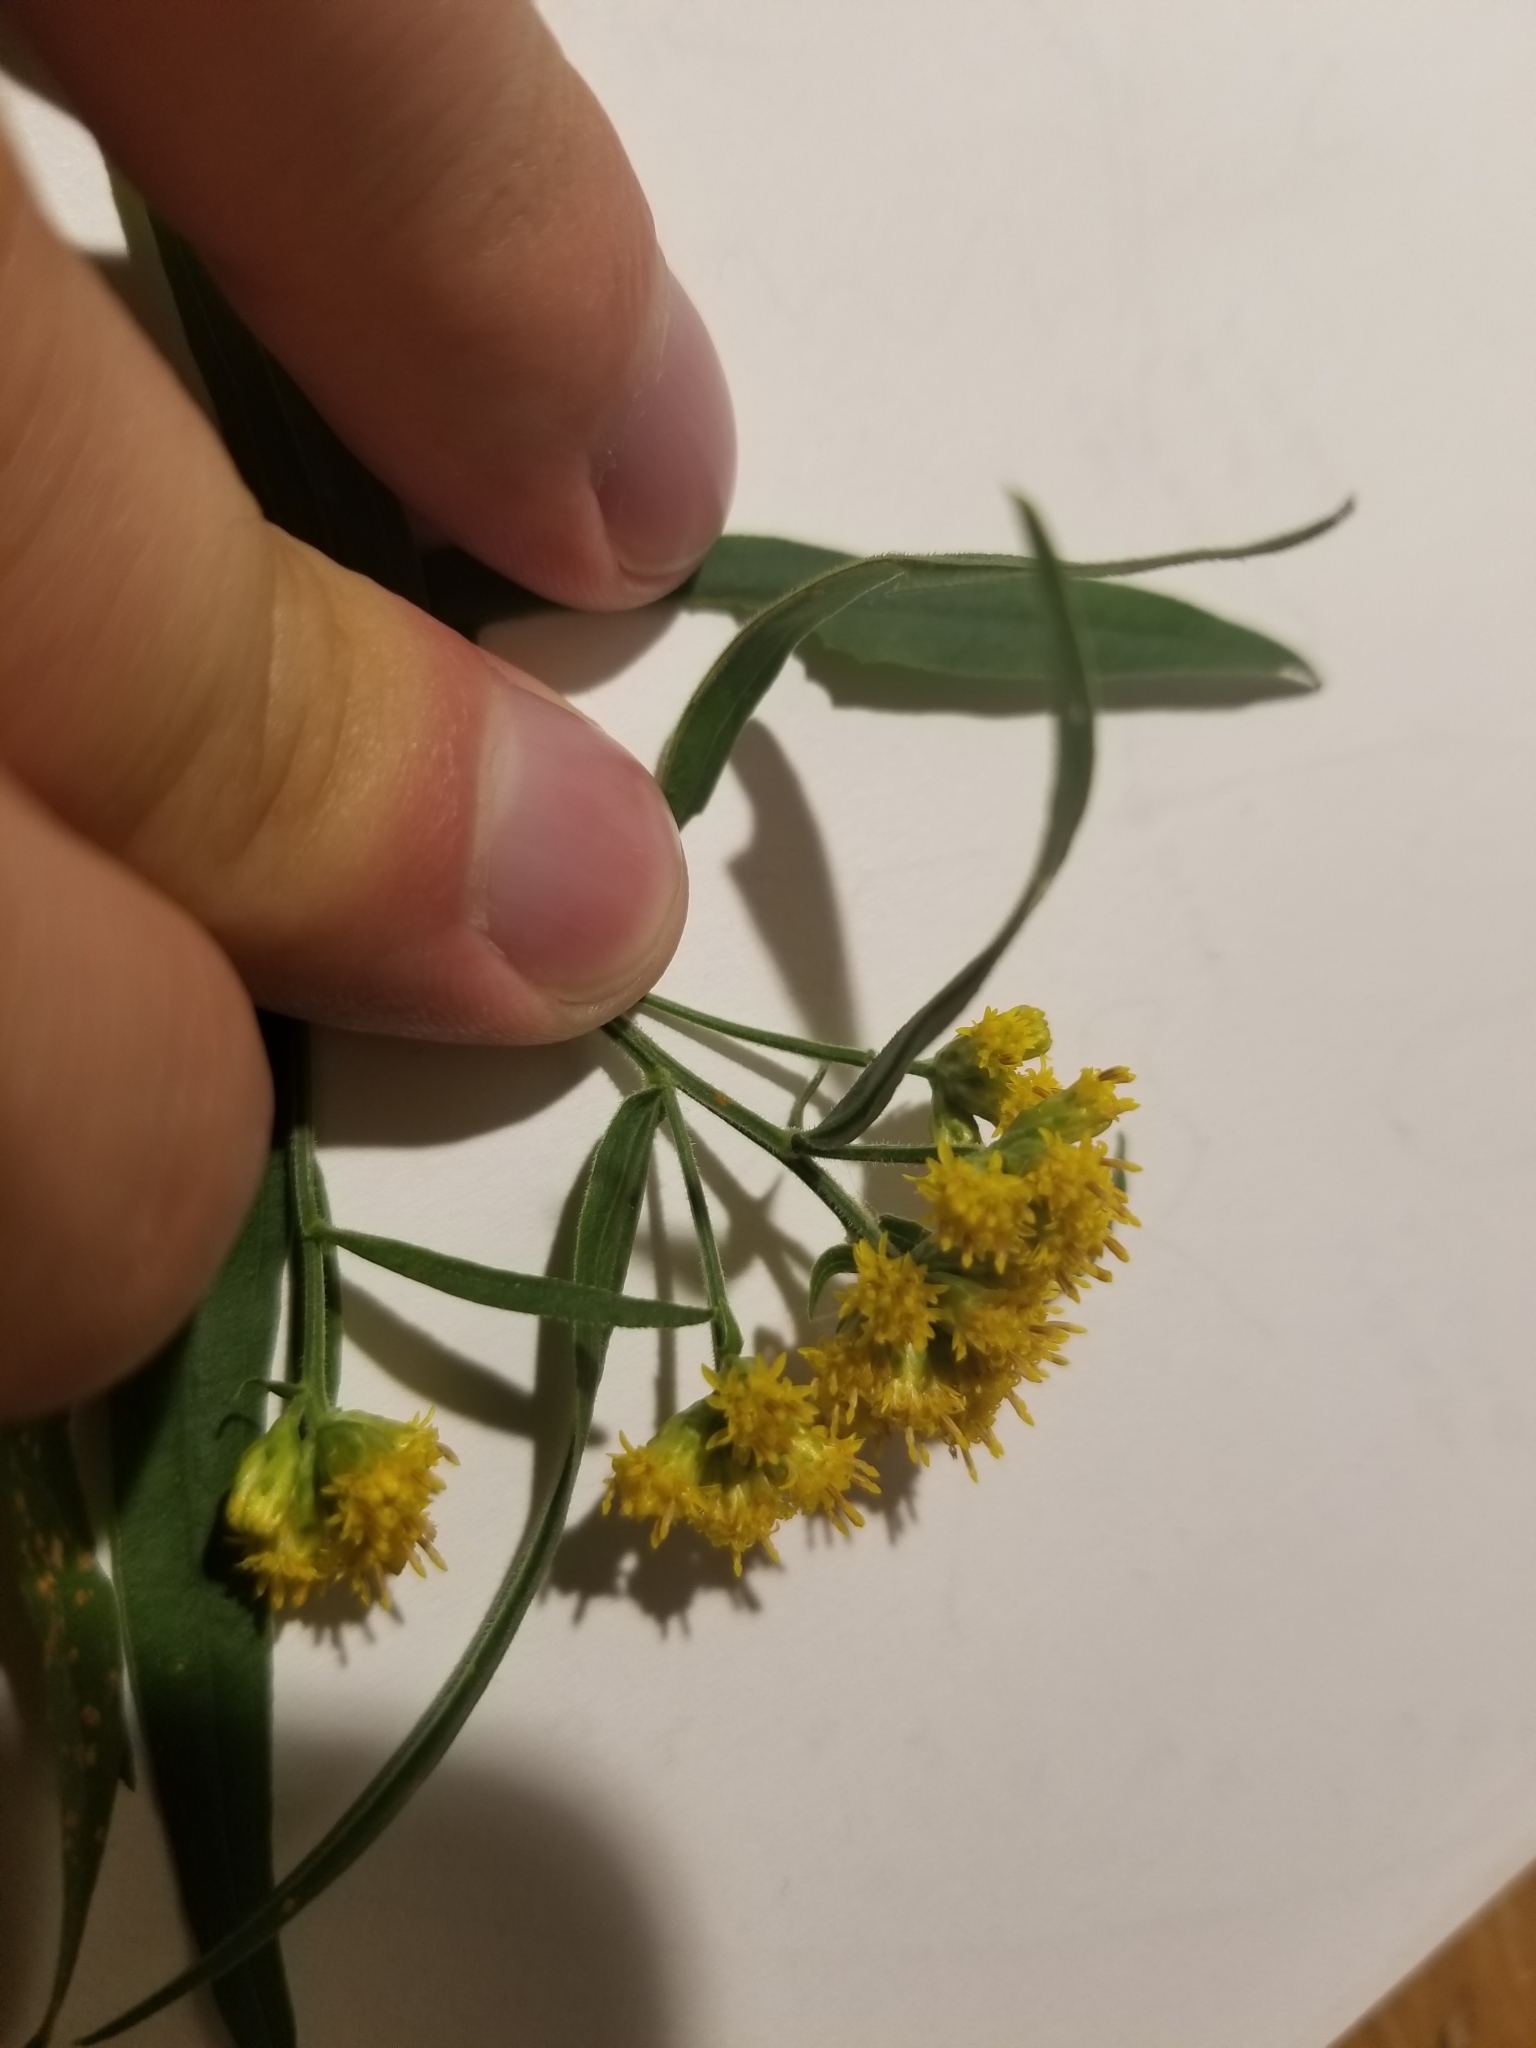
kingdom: Plantae
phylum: Tracheophyta
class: Magnoliopsida
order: Asterales
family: Asteraceae
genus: Euthamia
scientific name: Euthamia graminifolia
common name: Common goldentop
